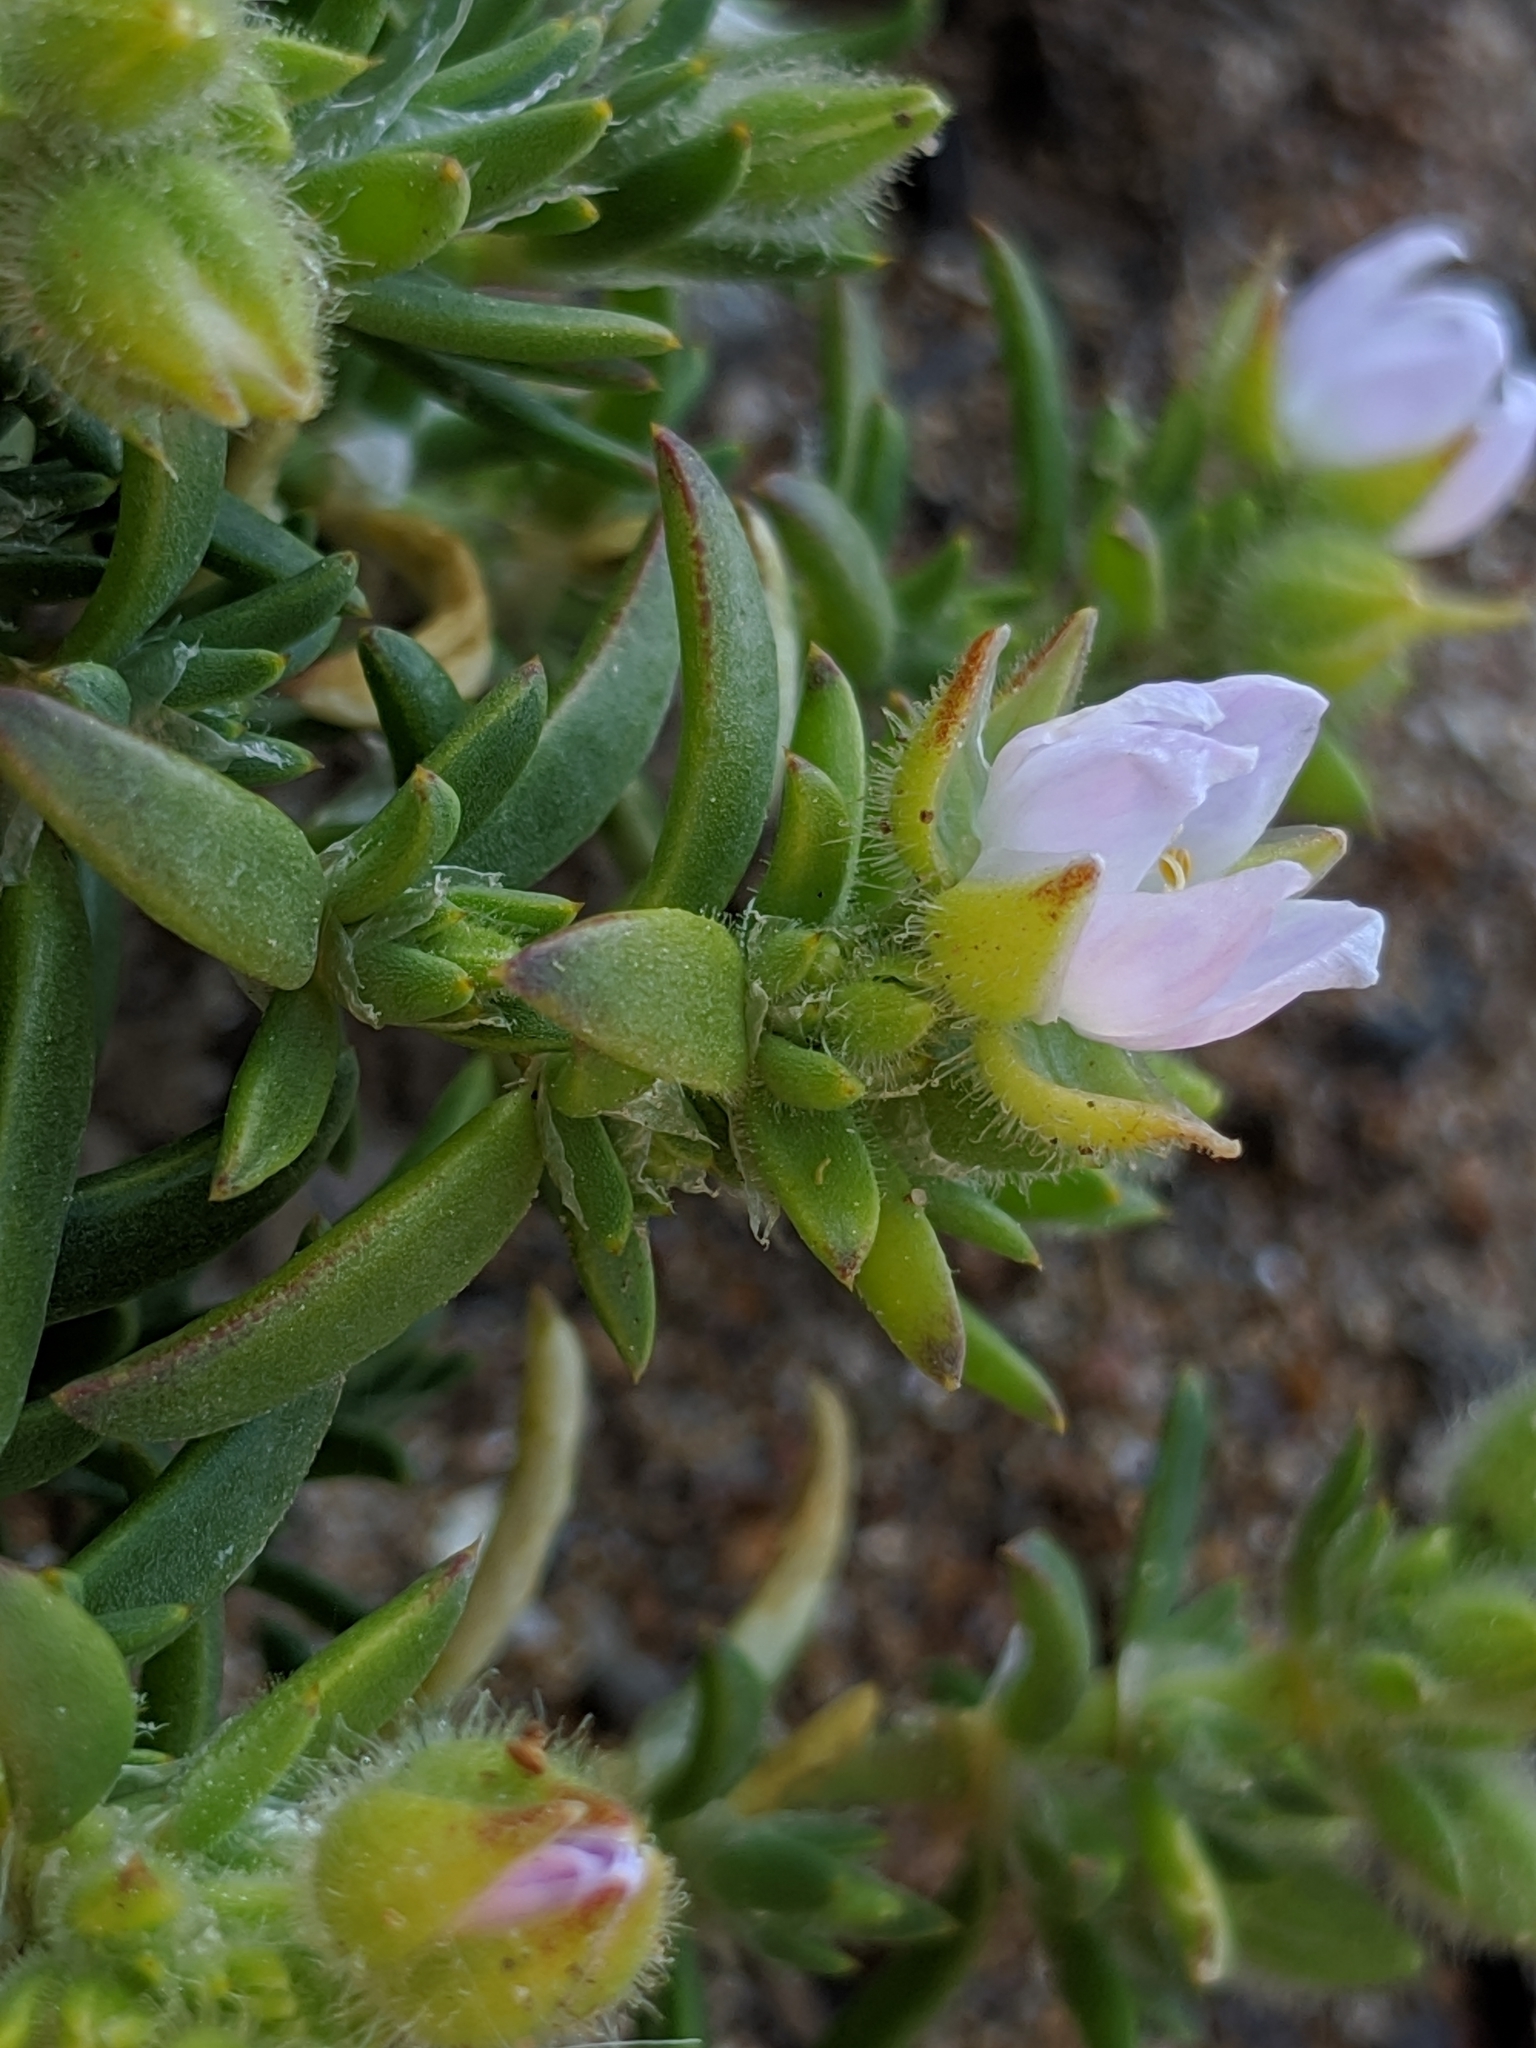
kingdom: Plantae
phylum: Tracheophyta
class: Magnoliopsida
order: Caryophyllales
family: Caryophyllaceae
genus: Spergularia
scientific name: Spergularia macrotheca
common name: Beach sand-spurrey
